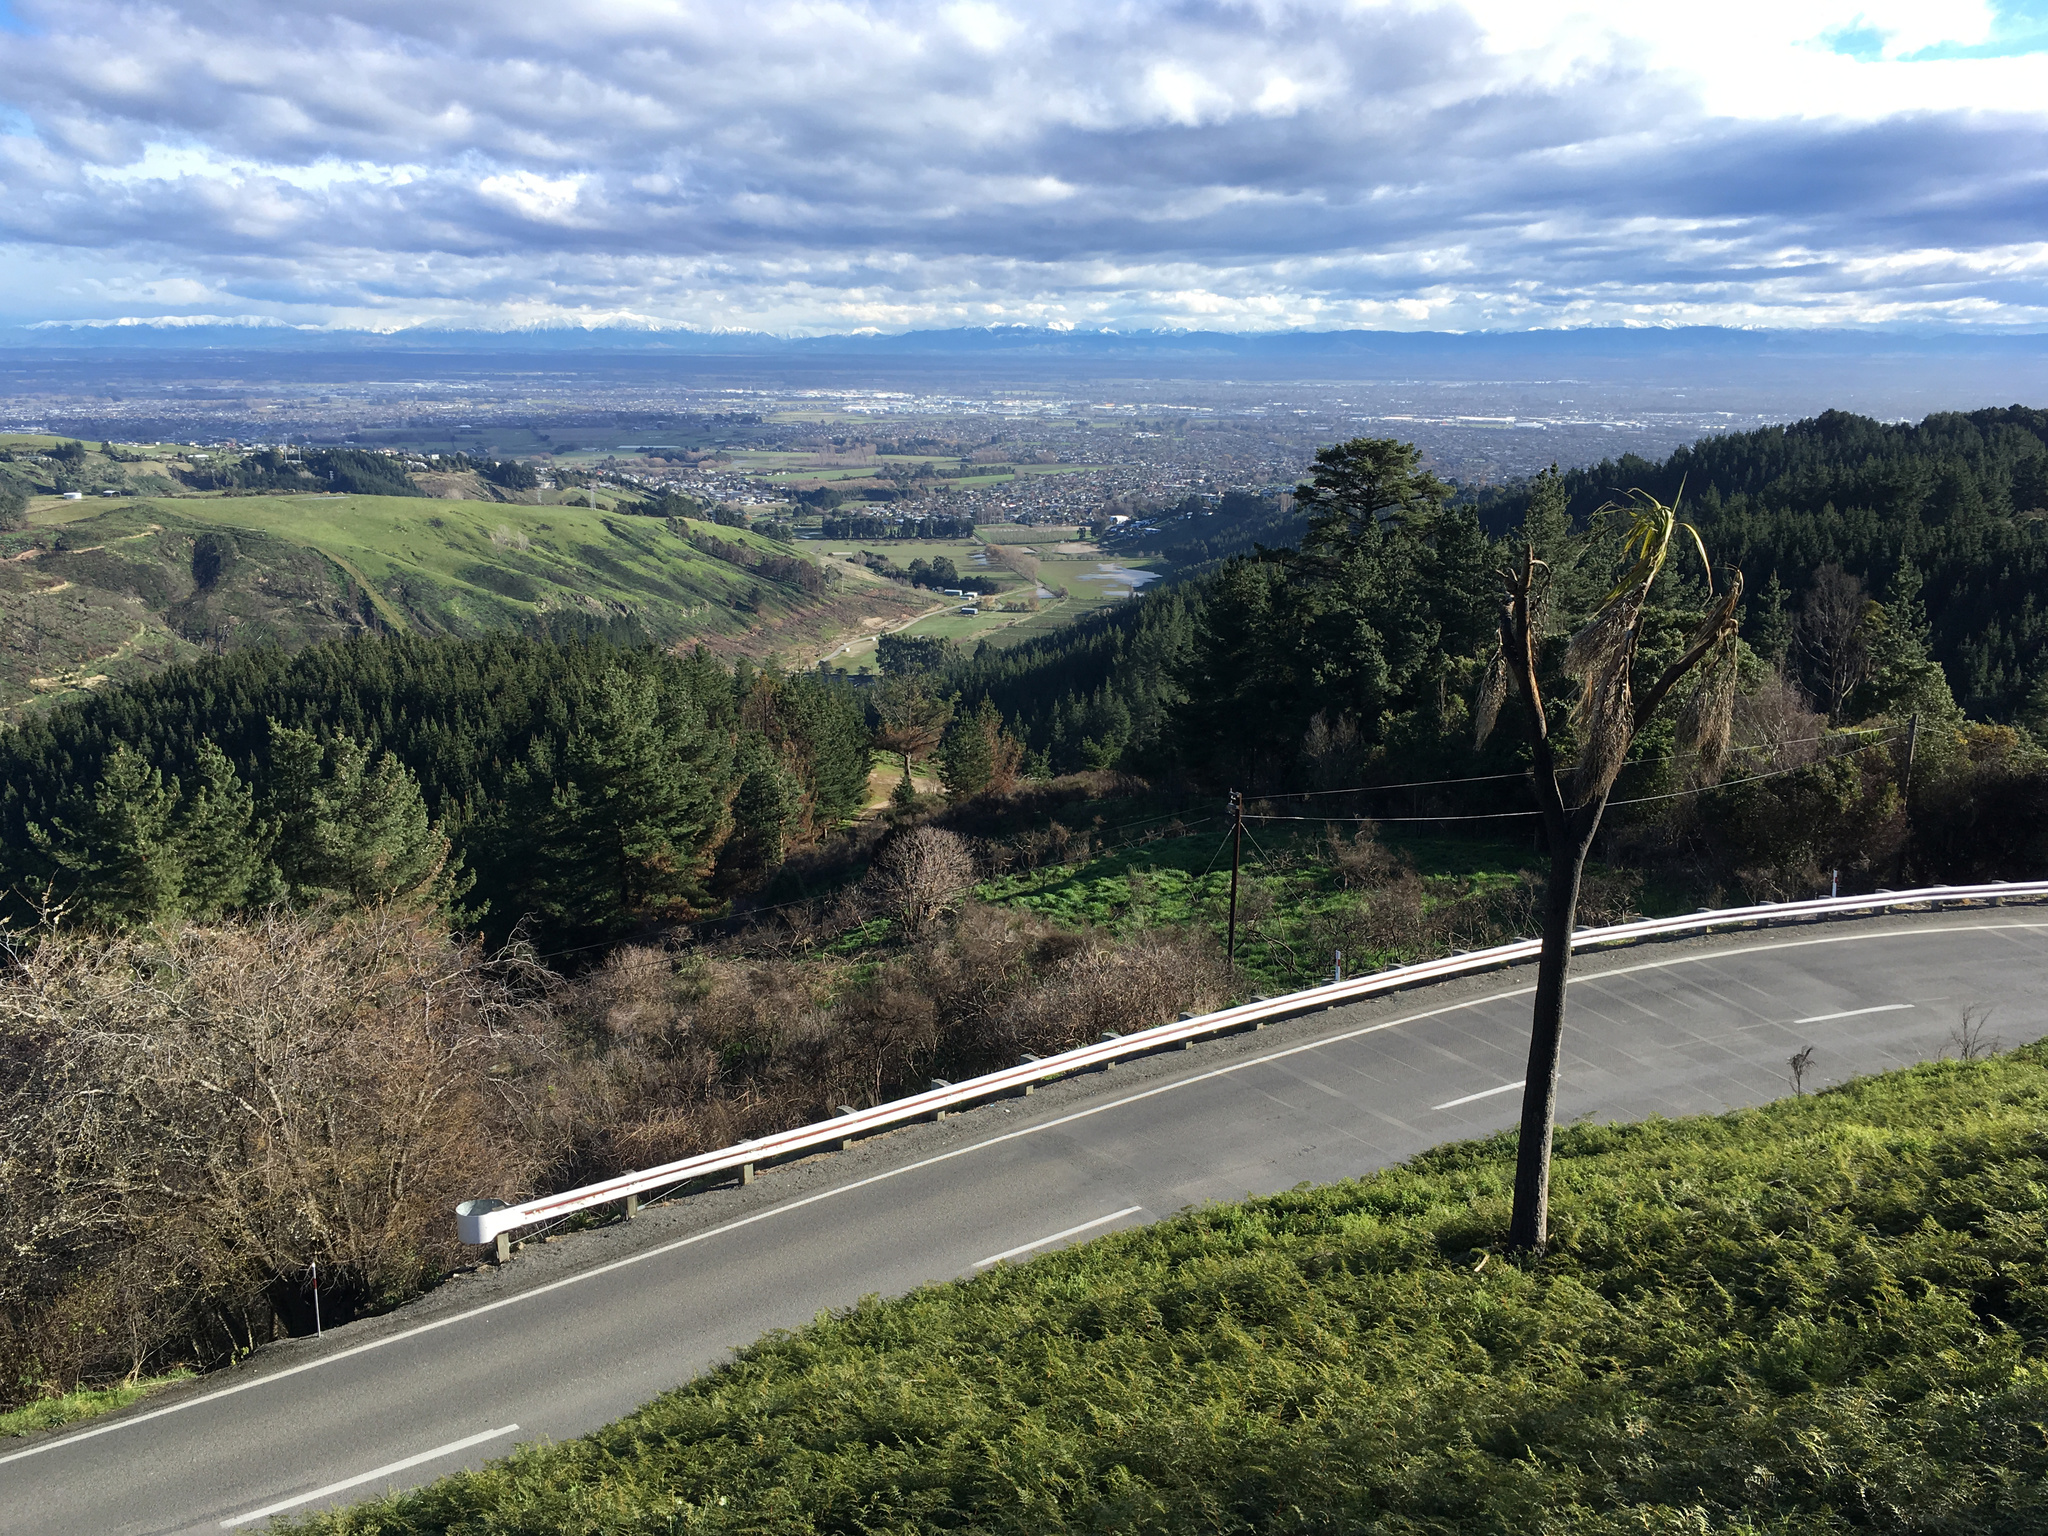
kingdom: Plantae
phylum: Tracheophyta
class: Liliopsida
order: Asparagales
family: Asparagaceae
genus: Cordyline
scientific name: Cordyline australis
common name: Cabbage-palm
